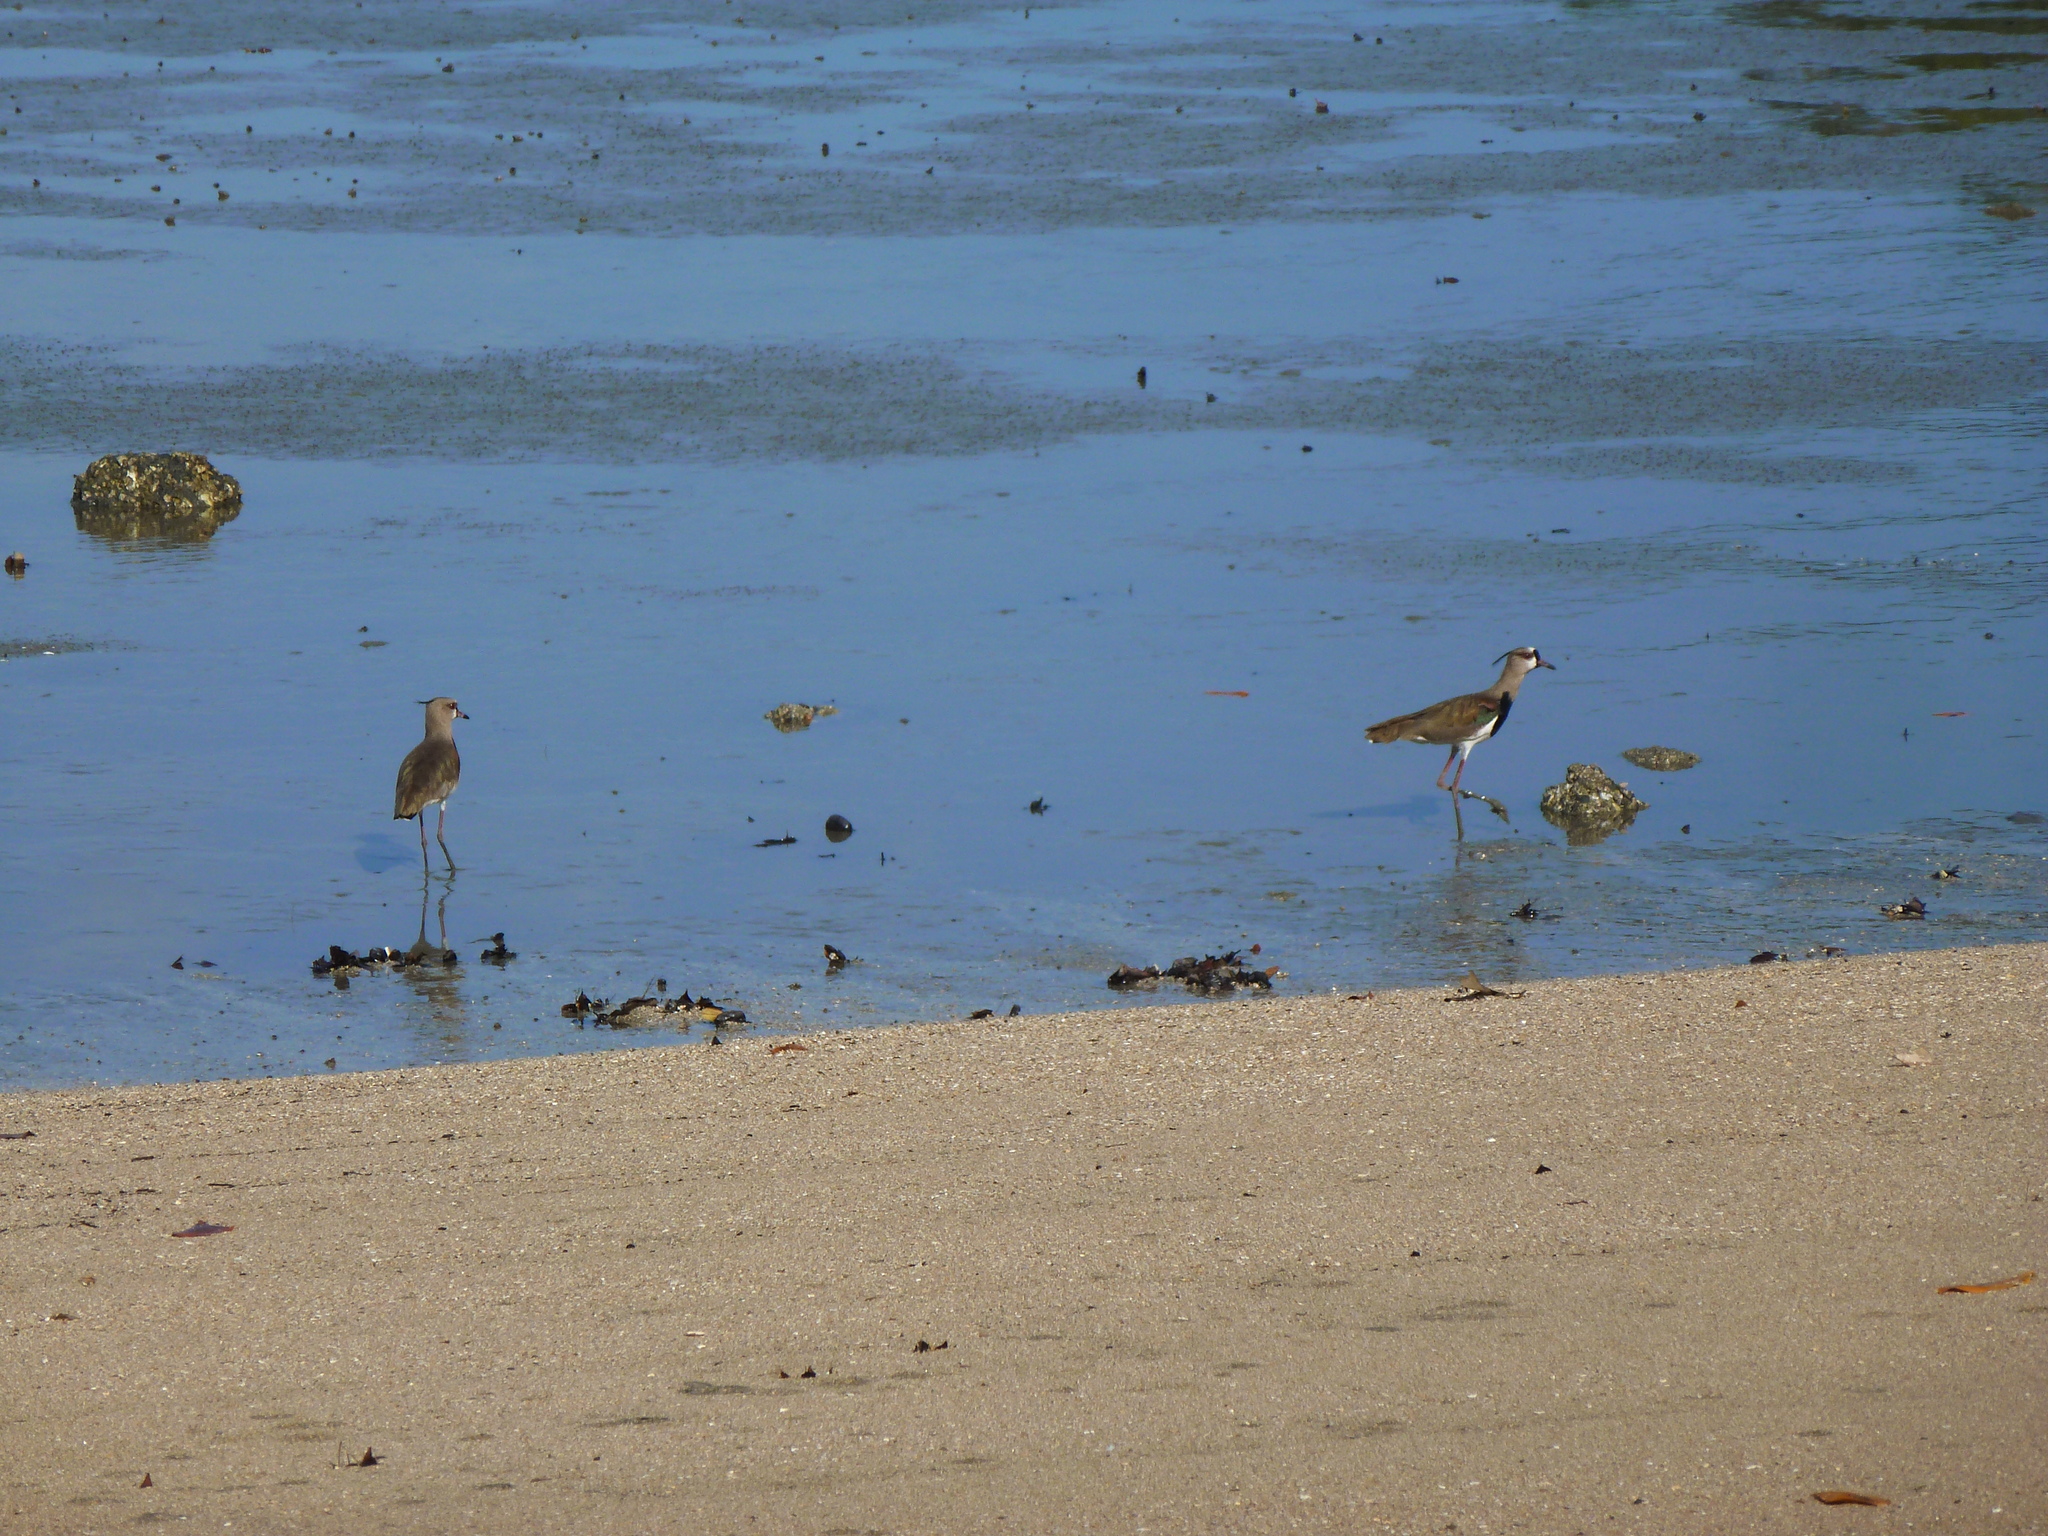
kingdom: Animalia
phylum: Chordata
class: Aves
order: Charadriiformes
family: Charadriidae
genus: Vanellus
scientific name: Vanellus chilensis
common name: Southern lapwing
